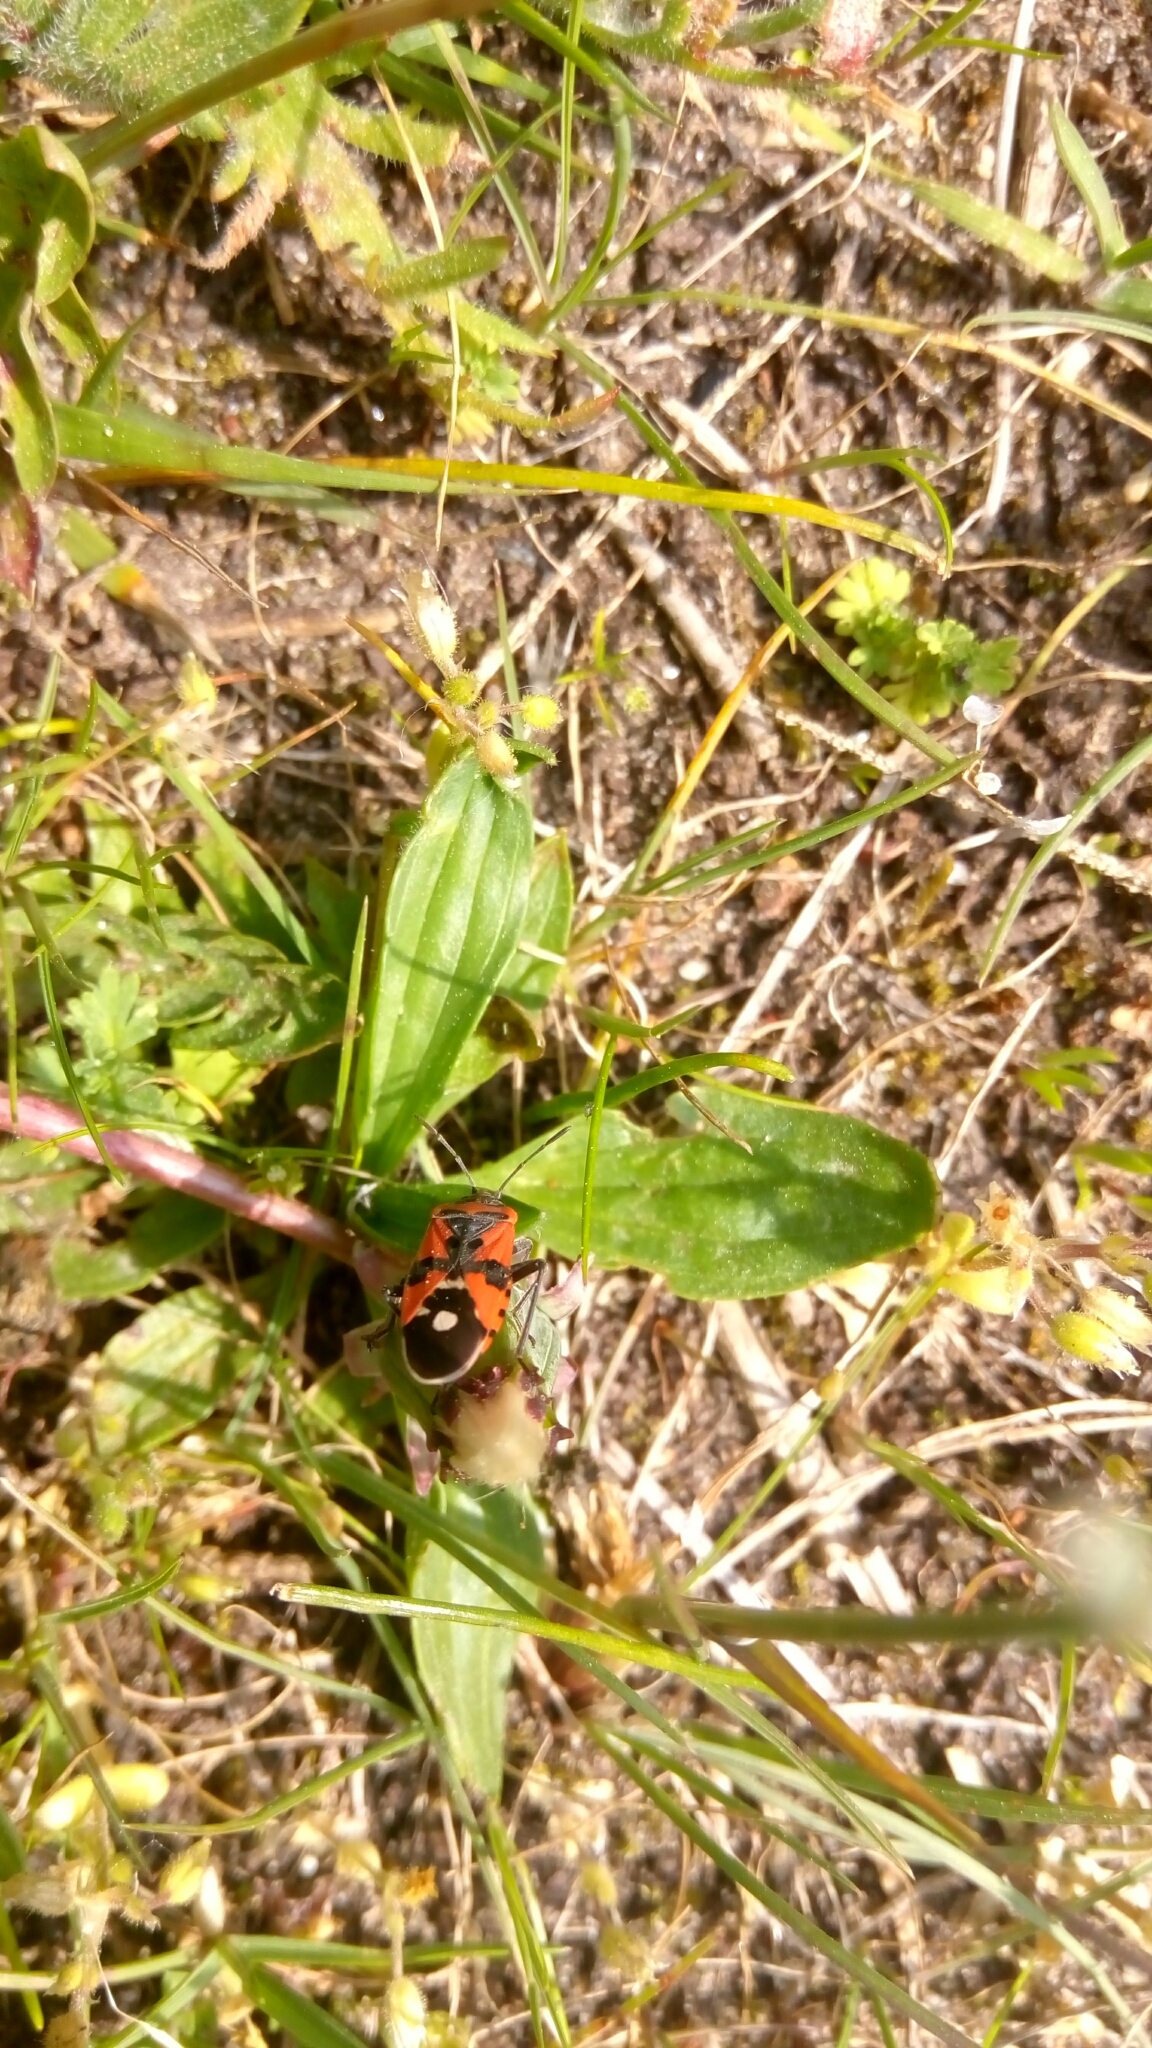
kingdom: Animalia
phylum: Arthropoda
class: Insecta
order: Hemiptera
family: Lygaeidae
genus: Lygaeus
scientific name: Lygaeus equestris
